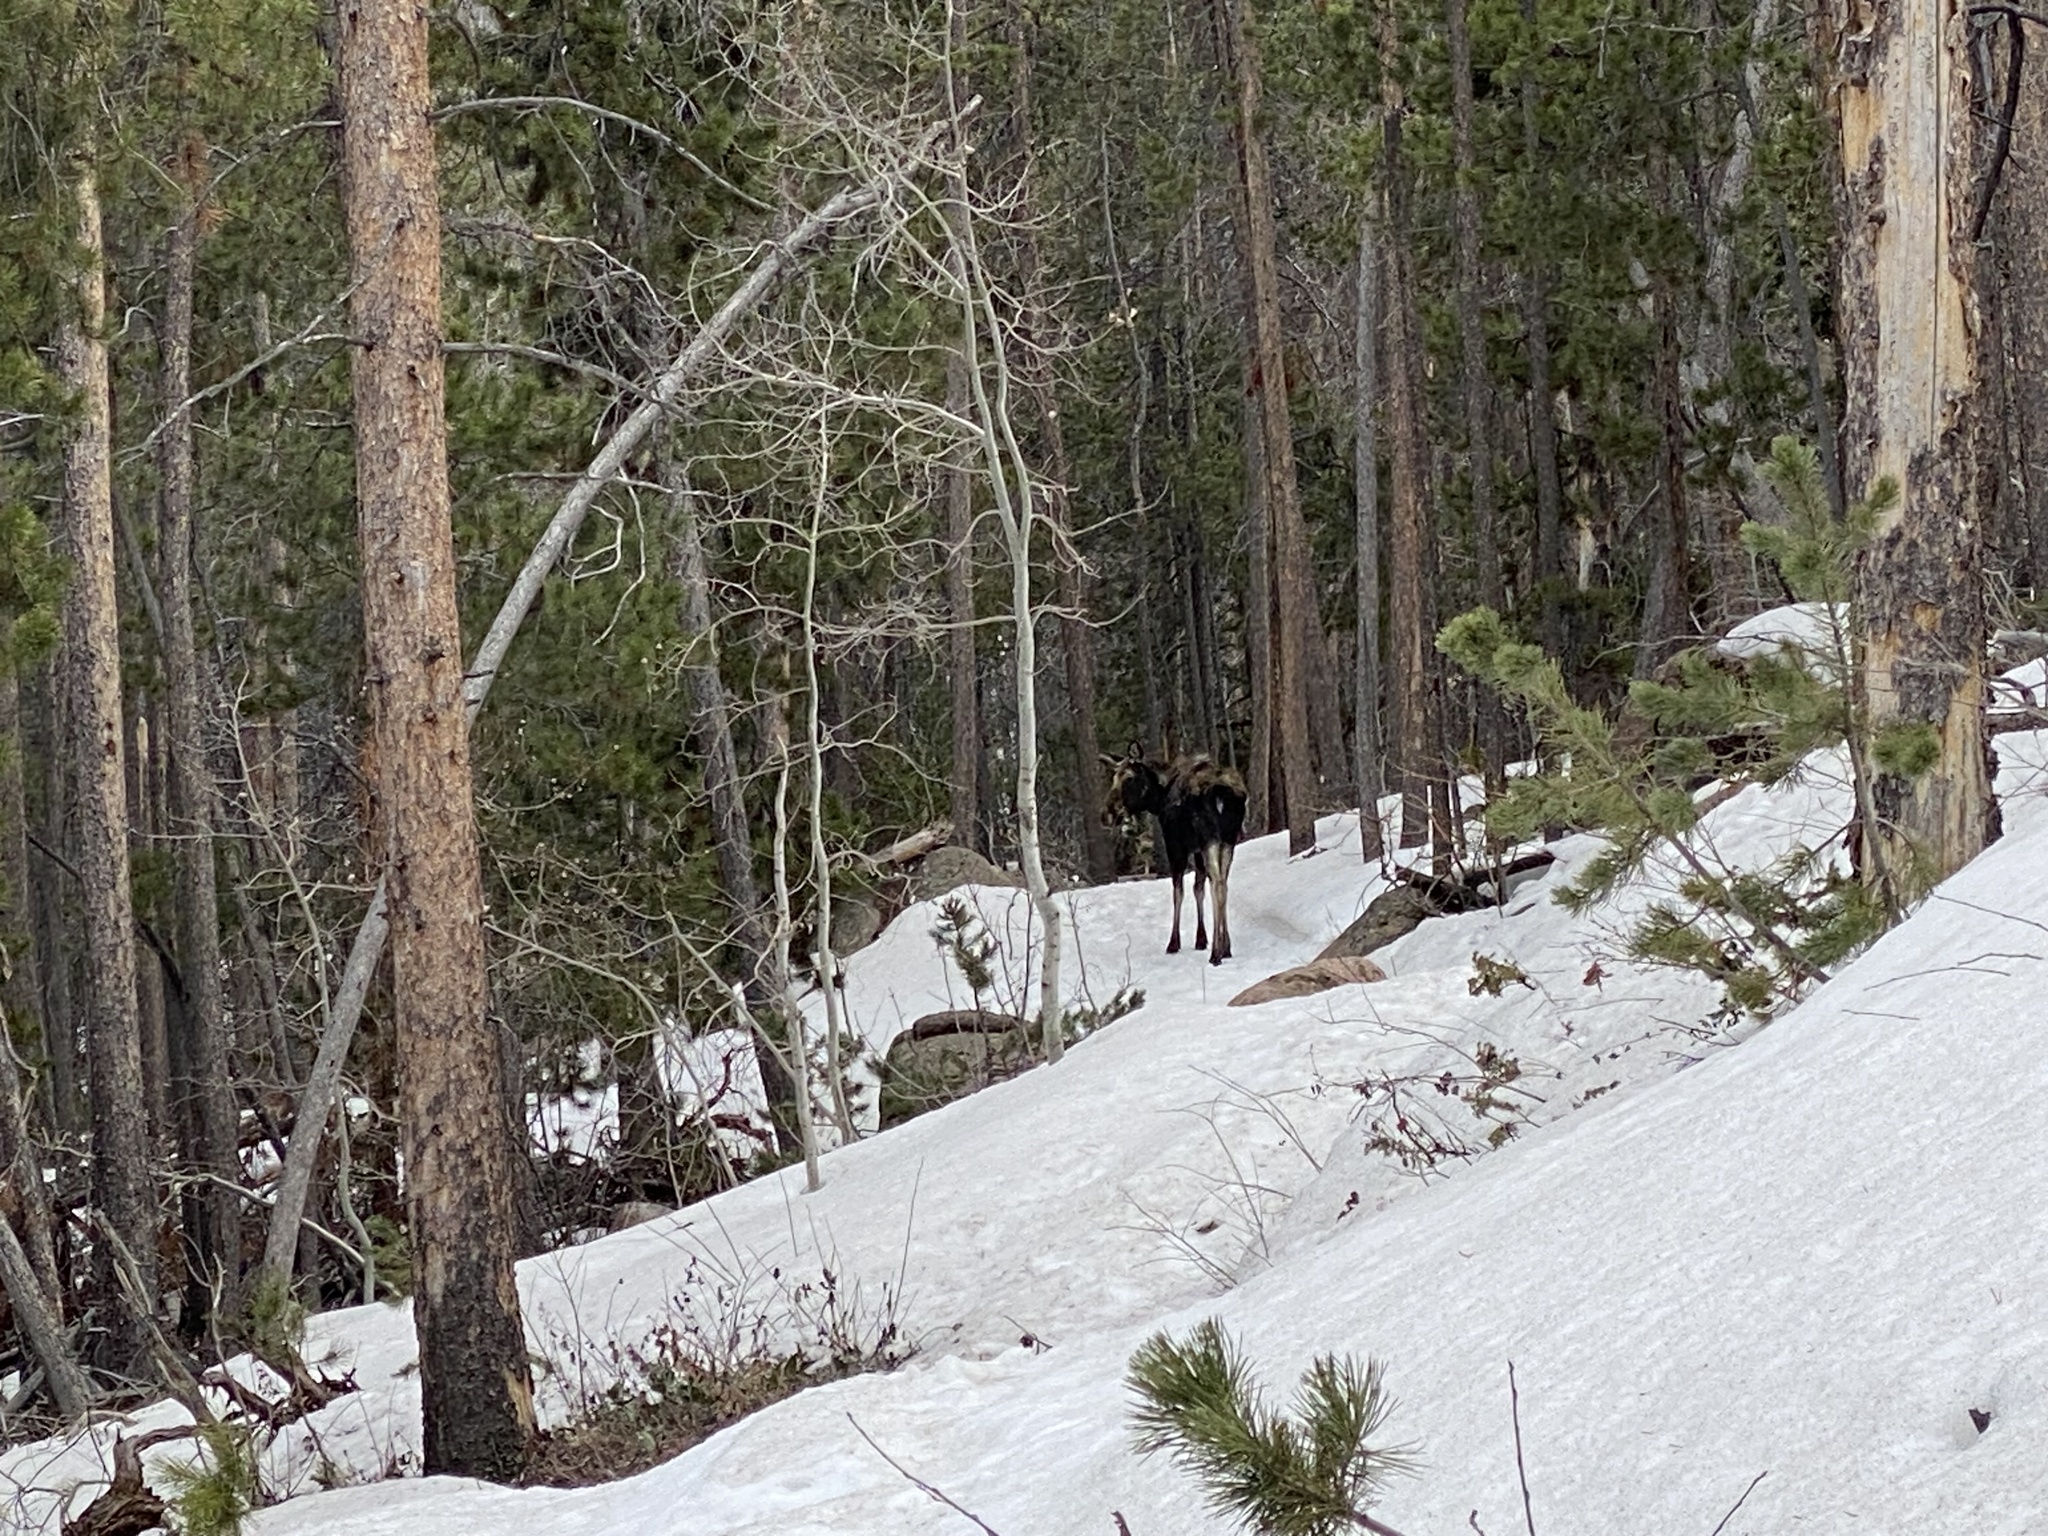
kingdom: Animalia
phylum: Chordata
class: Mammalia
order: Artiodactyla
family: Cervidae
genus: Alces
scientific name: Alces alces
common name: Moose
